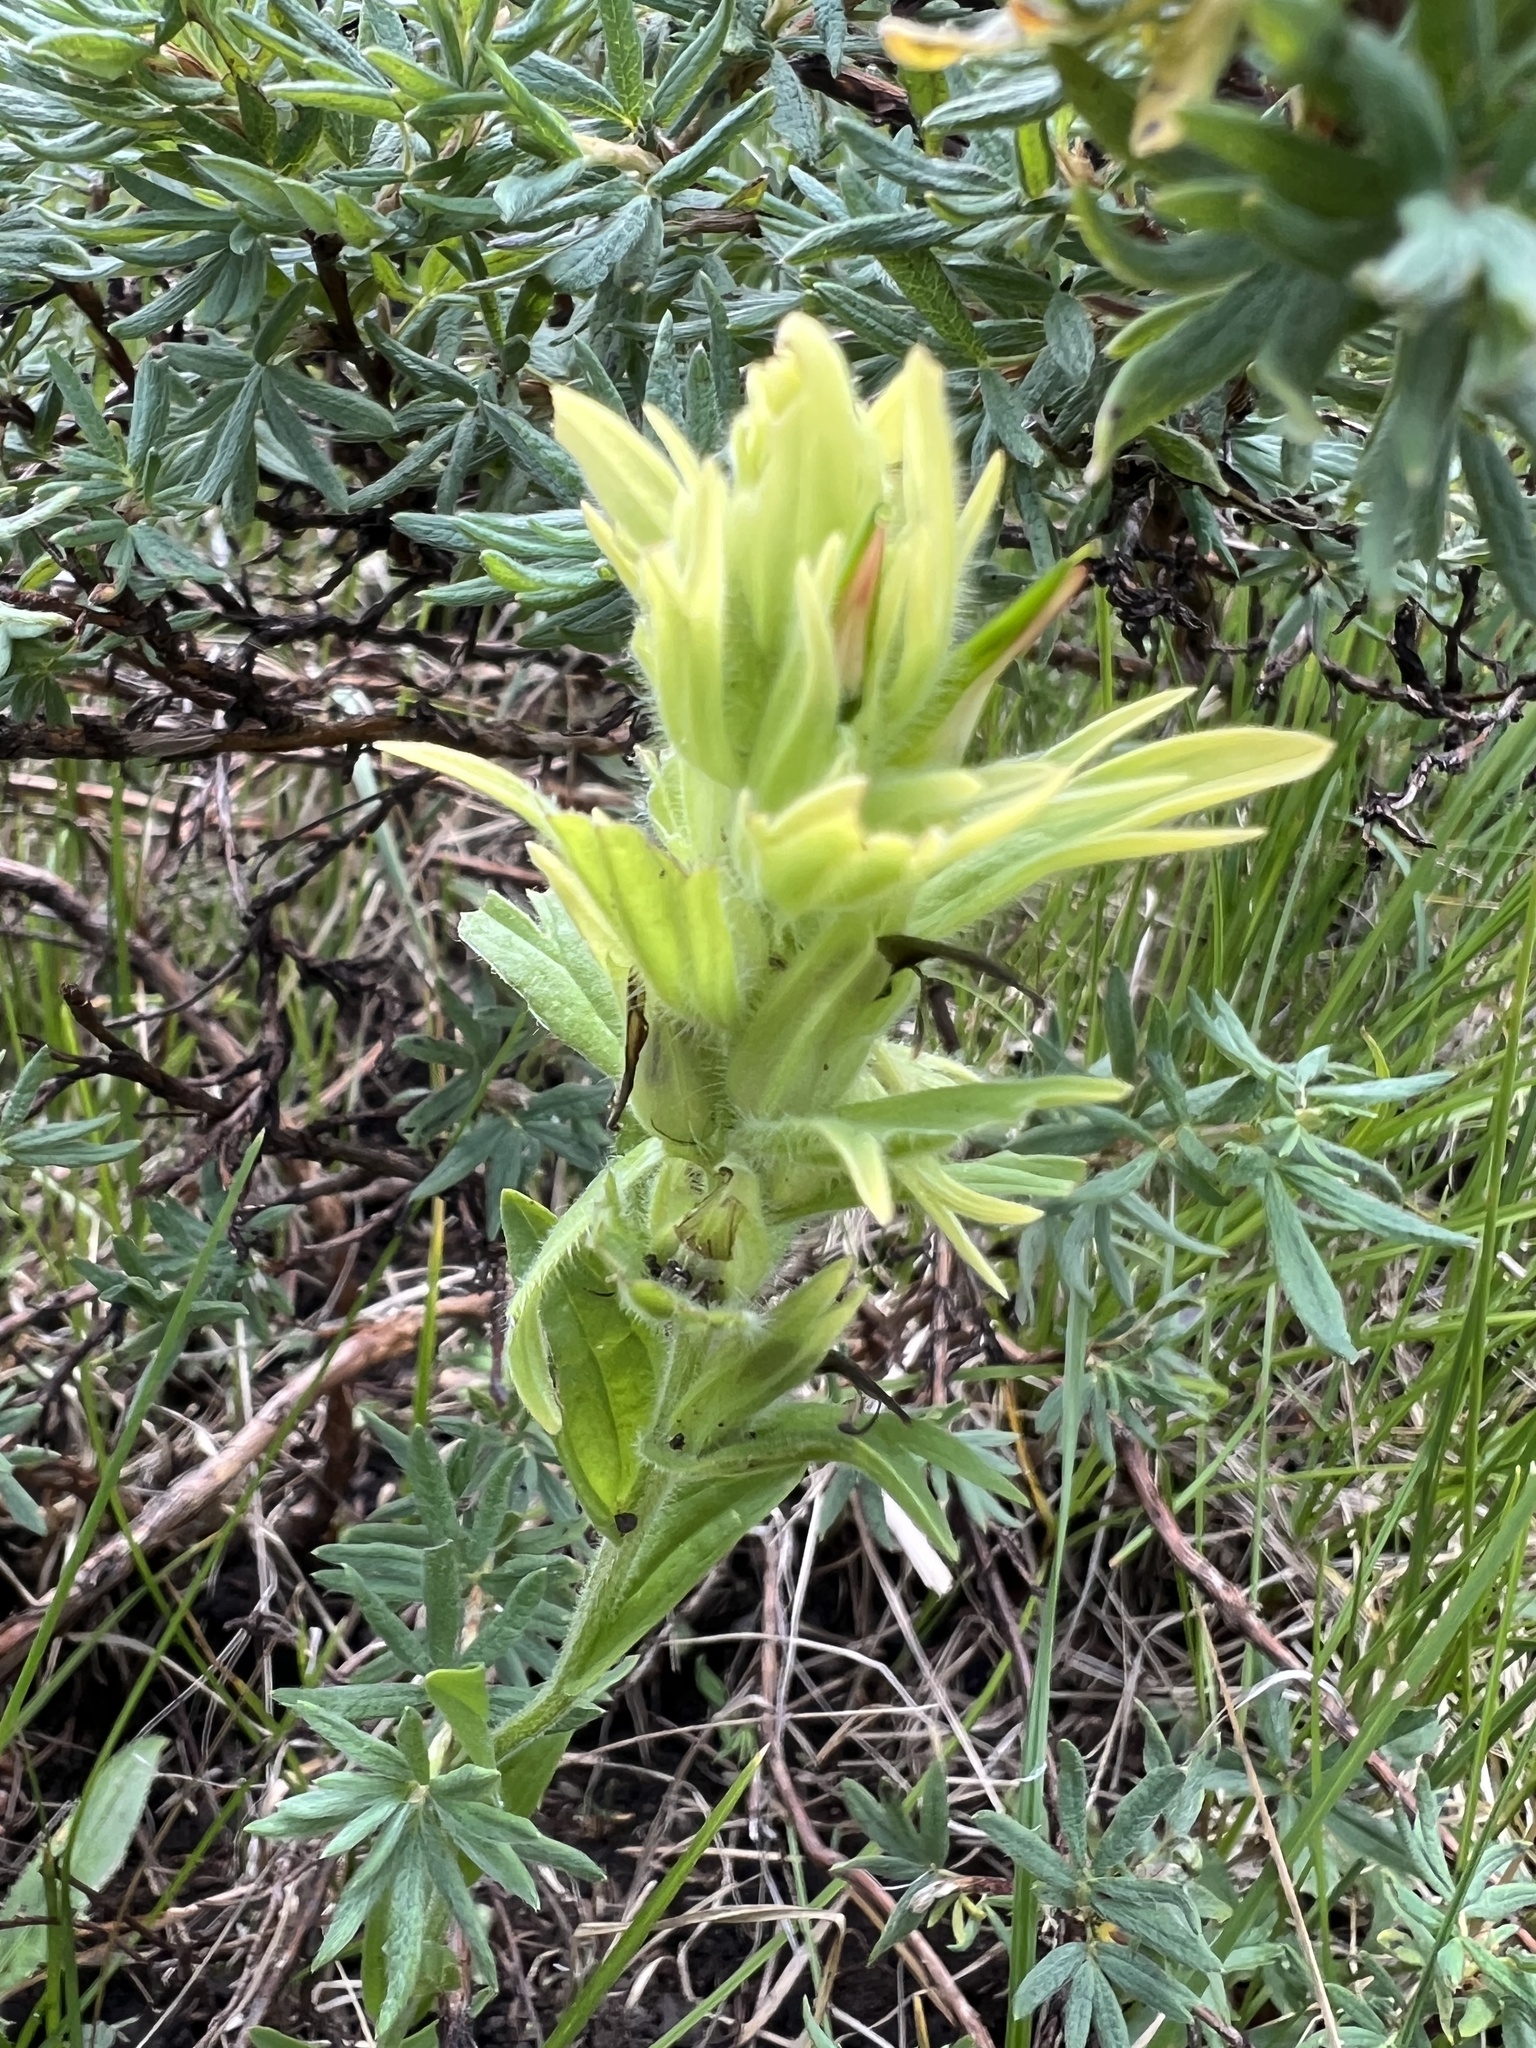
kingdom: Plantae
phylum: Tracheophyta
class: Magnoliopsida
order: Lamiales
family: Orobanchaceae
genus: Castilleja
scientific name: Castilleja mogollonica
